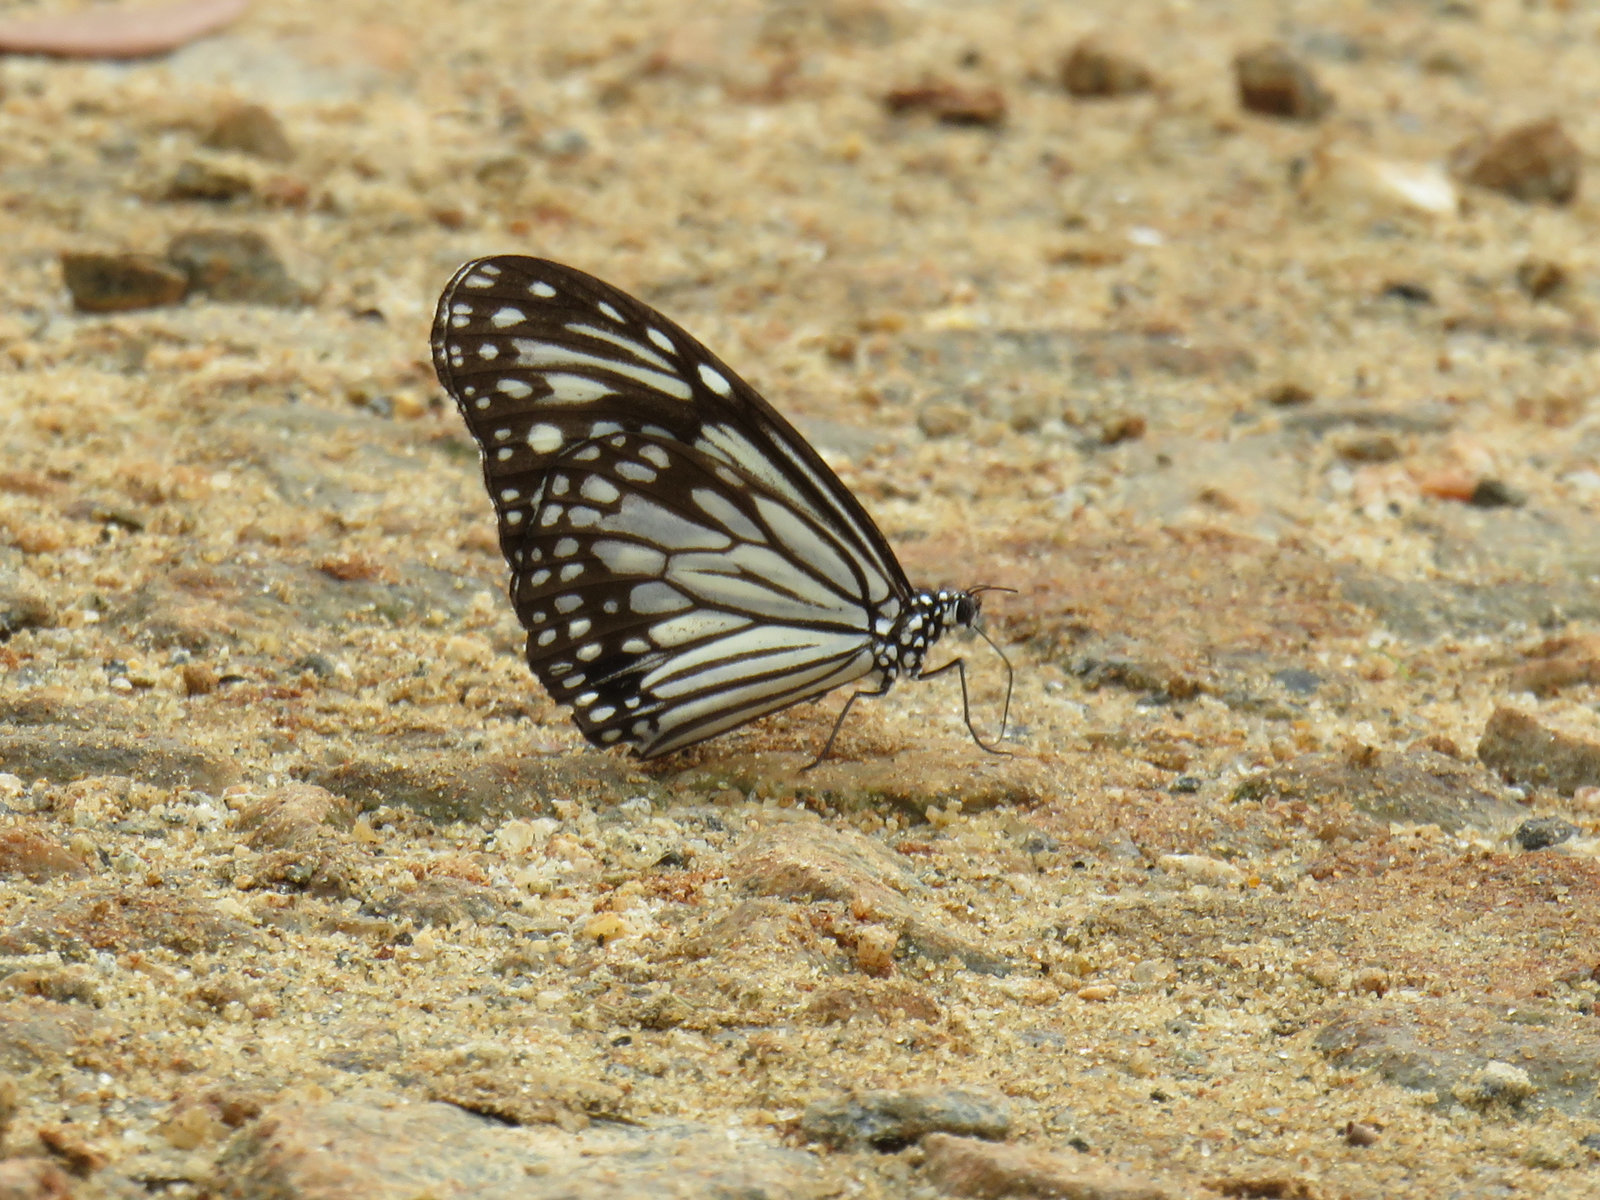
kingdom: Animalia
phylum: Arthropoda
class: Insecta
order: Lepidoptera
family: Nymphalidae
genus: Parantica
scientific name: Parantica aglea
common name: Glassy tiger
